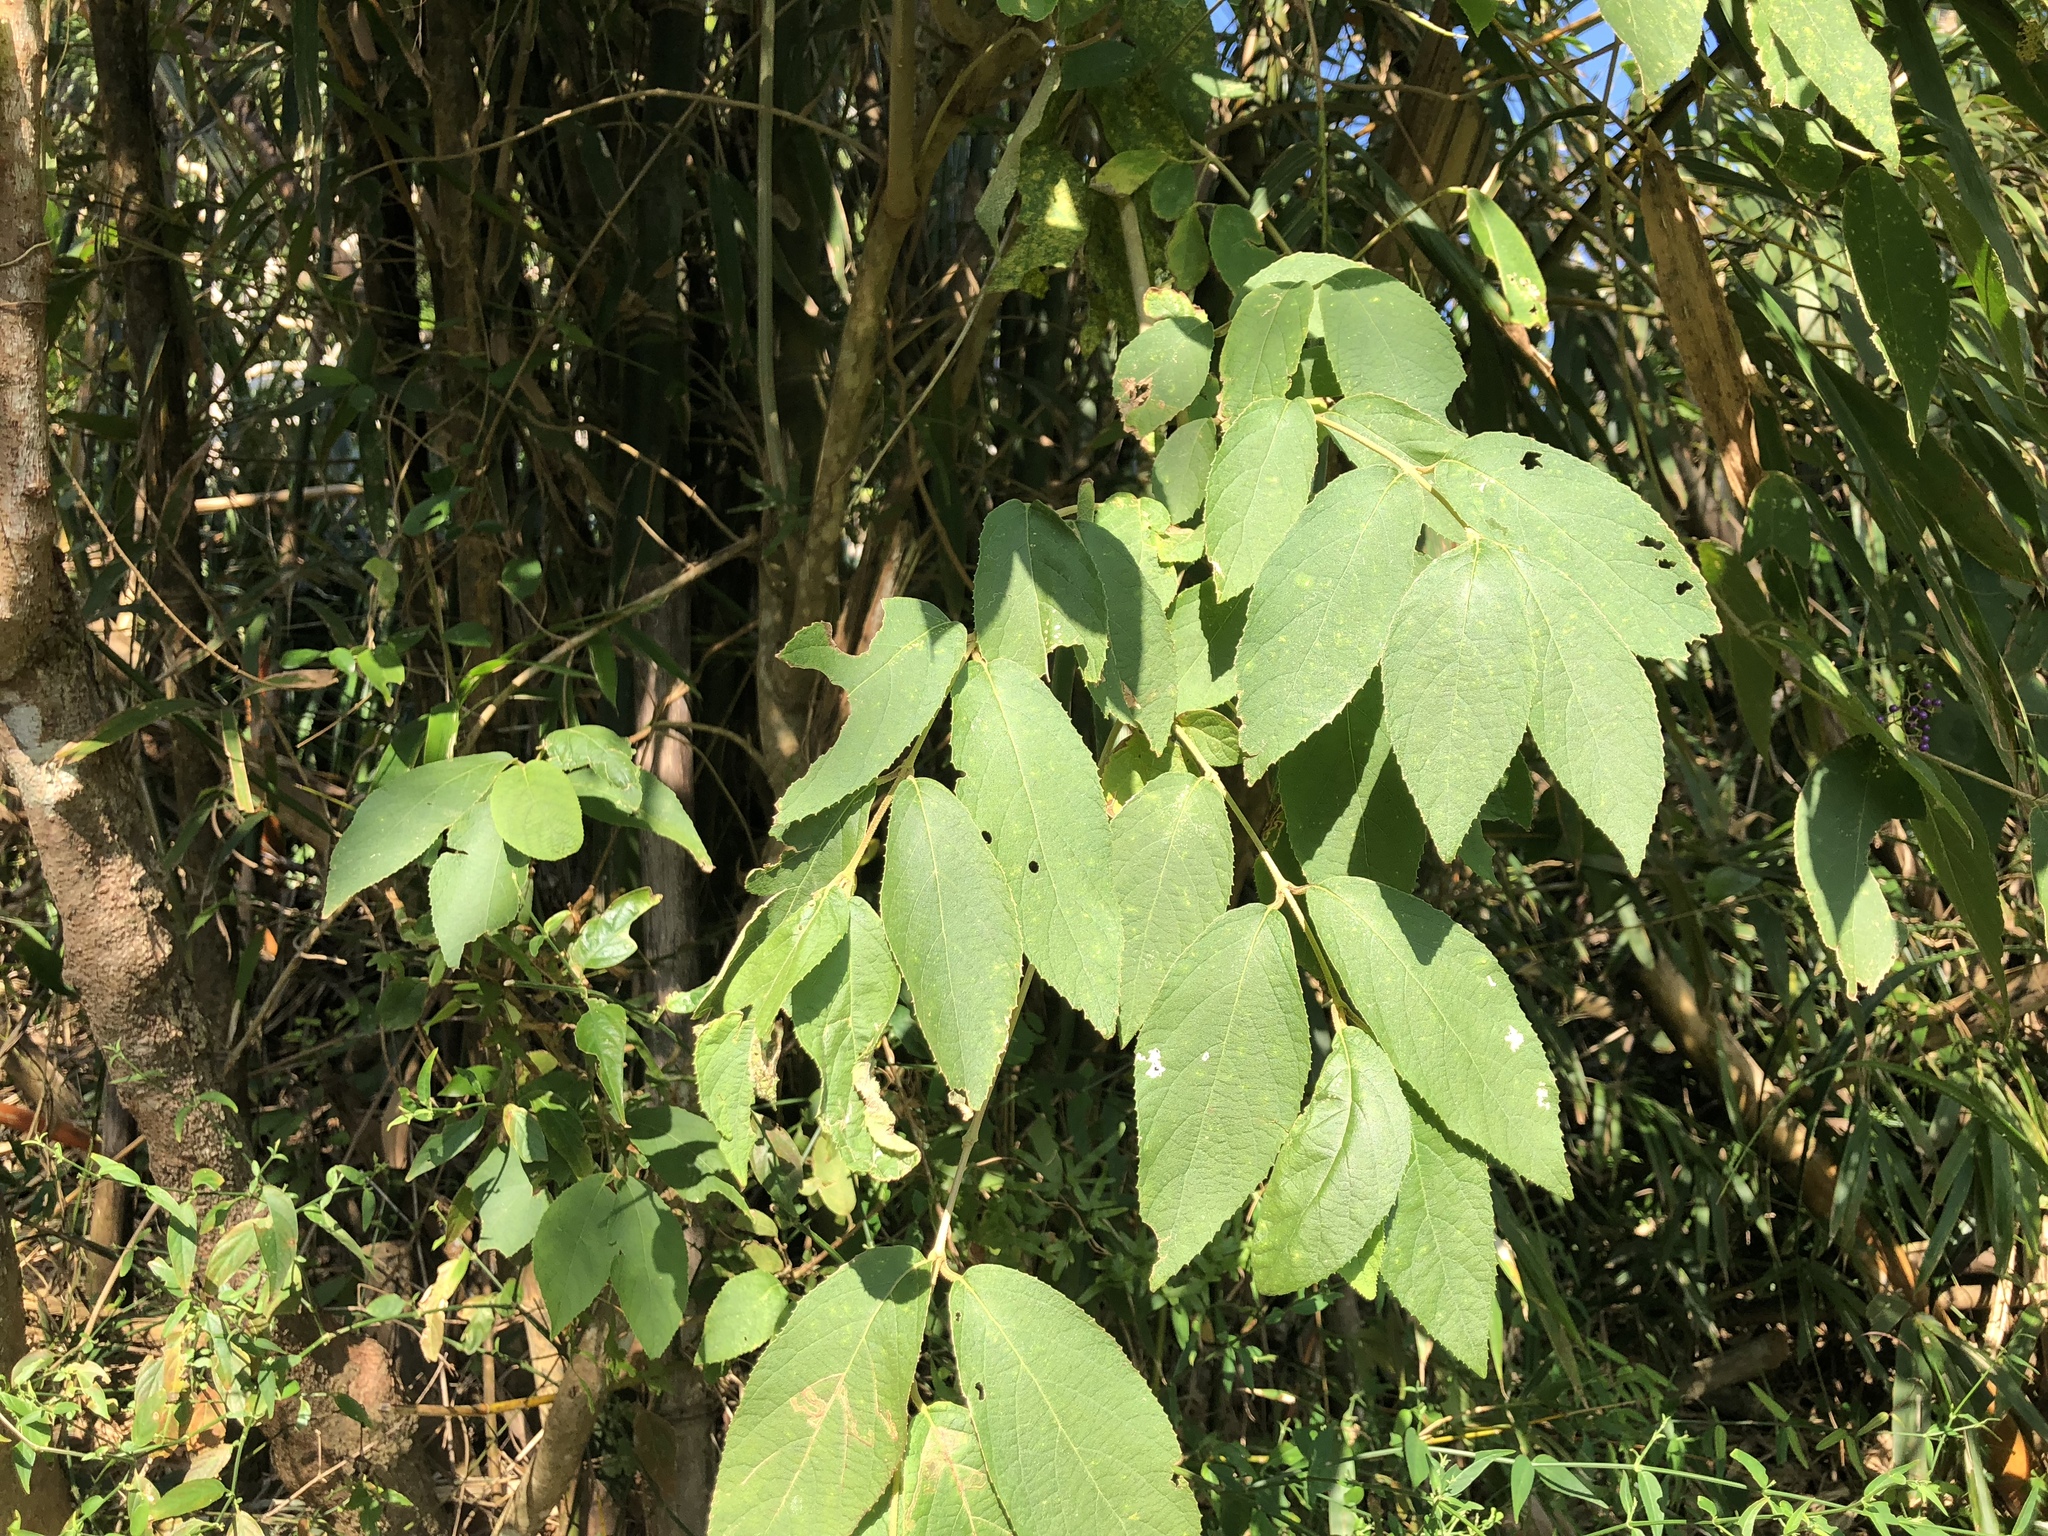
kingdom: Plantae
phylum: Tracheophyta
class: Magnoliopsida
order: Lamiales
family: Lamiaceae
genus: Callicarpa
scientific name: Callicarpa pedunculata
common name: Velvetleaf
